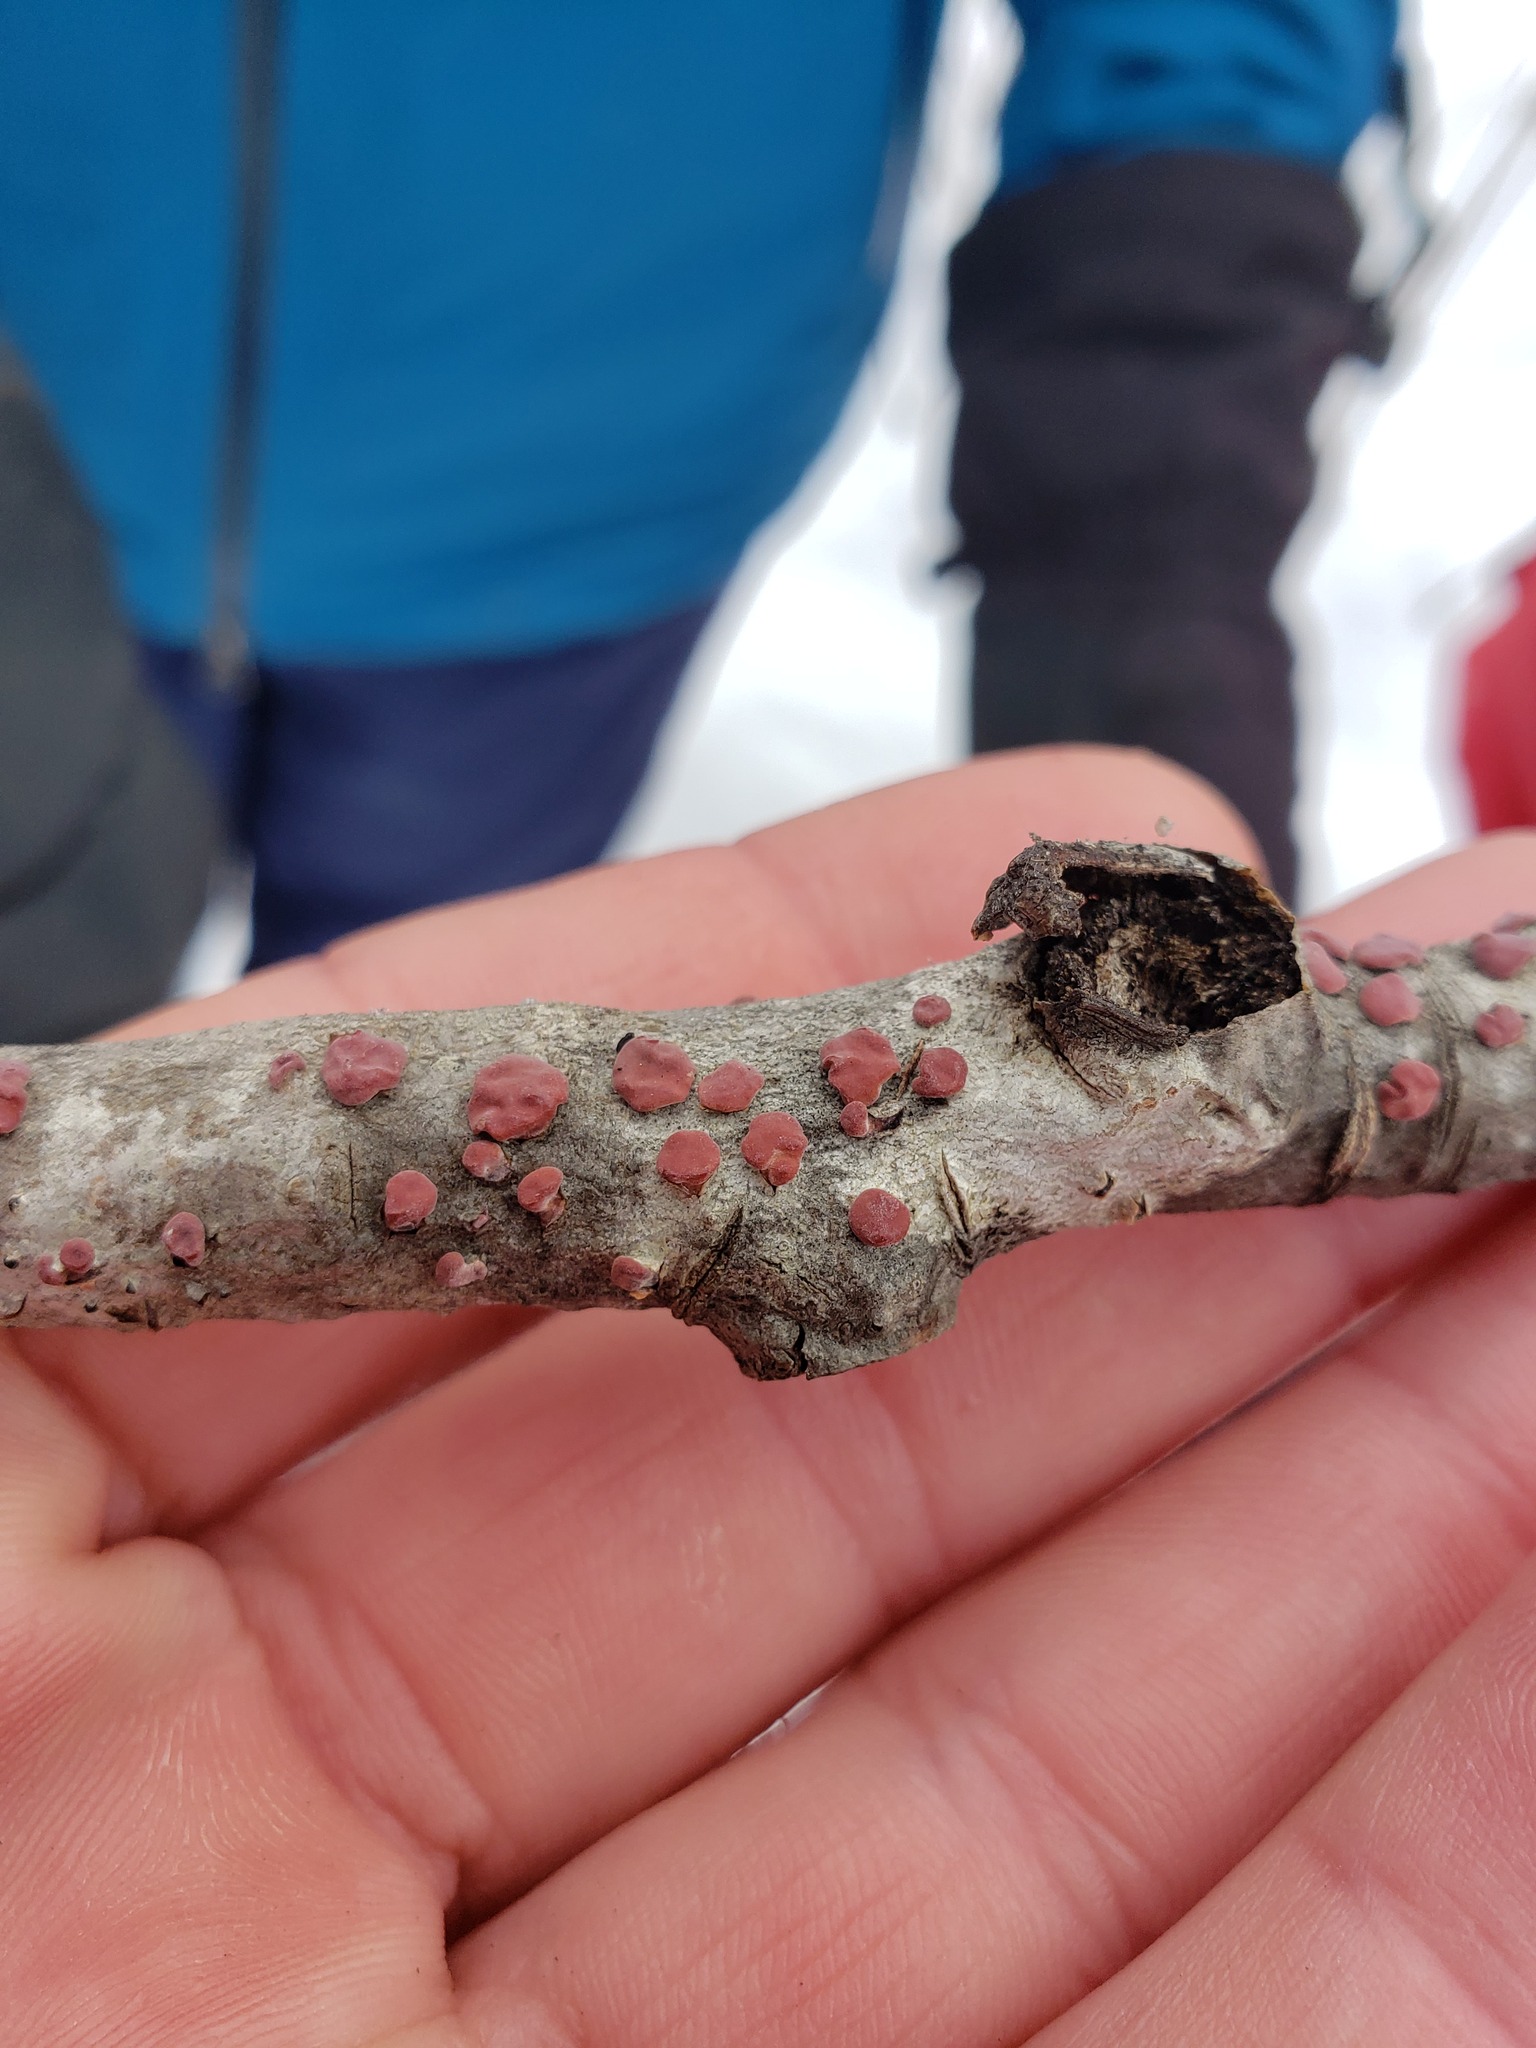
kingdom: Fungi
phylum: Basidiomycota
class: Agaricomycetes
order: Russulales
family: Peniophoraceae
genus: Peniophora
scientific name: Peniophora rufa
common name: Red tree brain fungus
